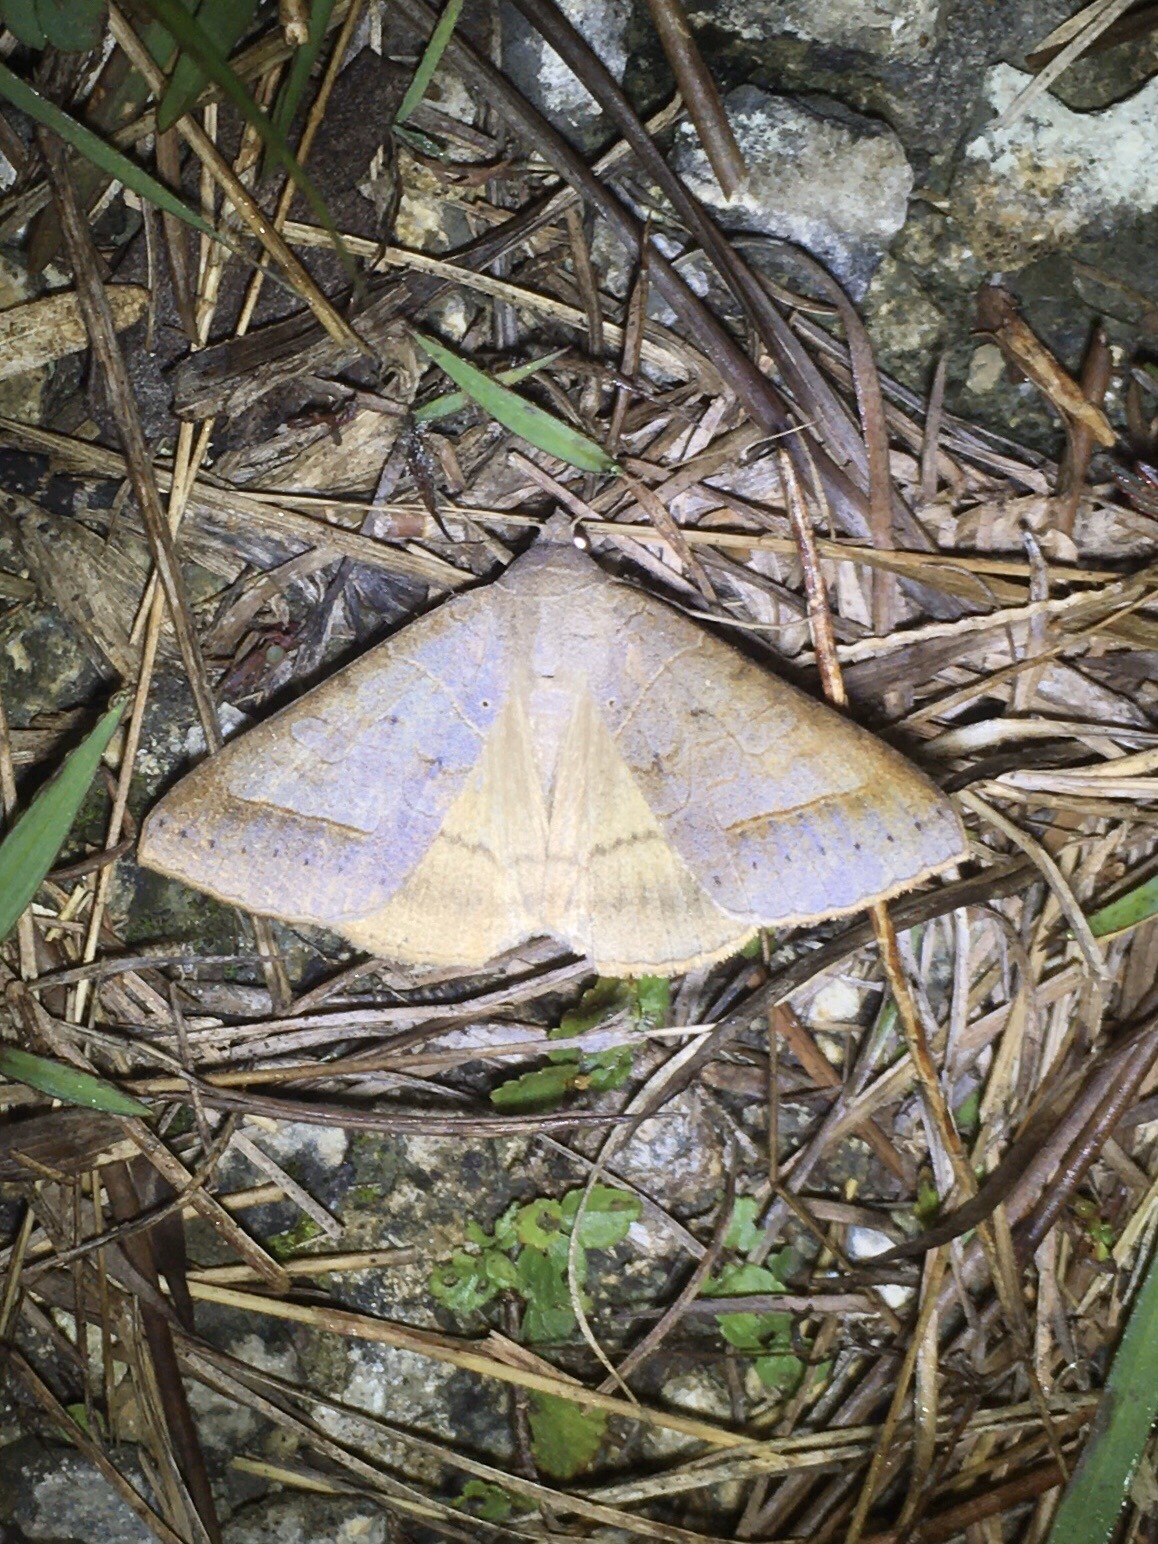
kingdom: Animalia
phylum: Arthropoda
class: Insecta
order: Lepidoptera
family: Erebidae
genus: Mocis
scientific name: Mocis marcida
